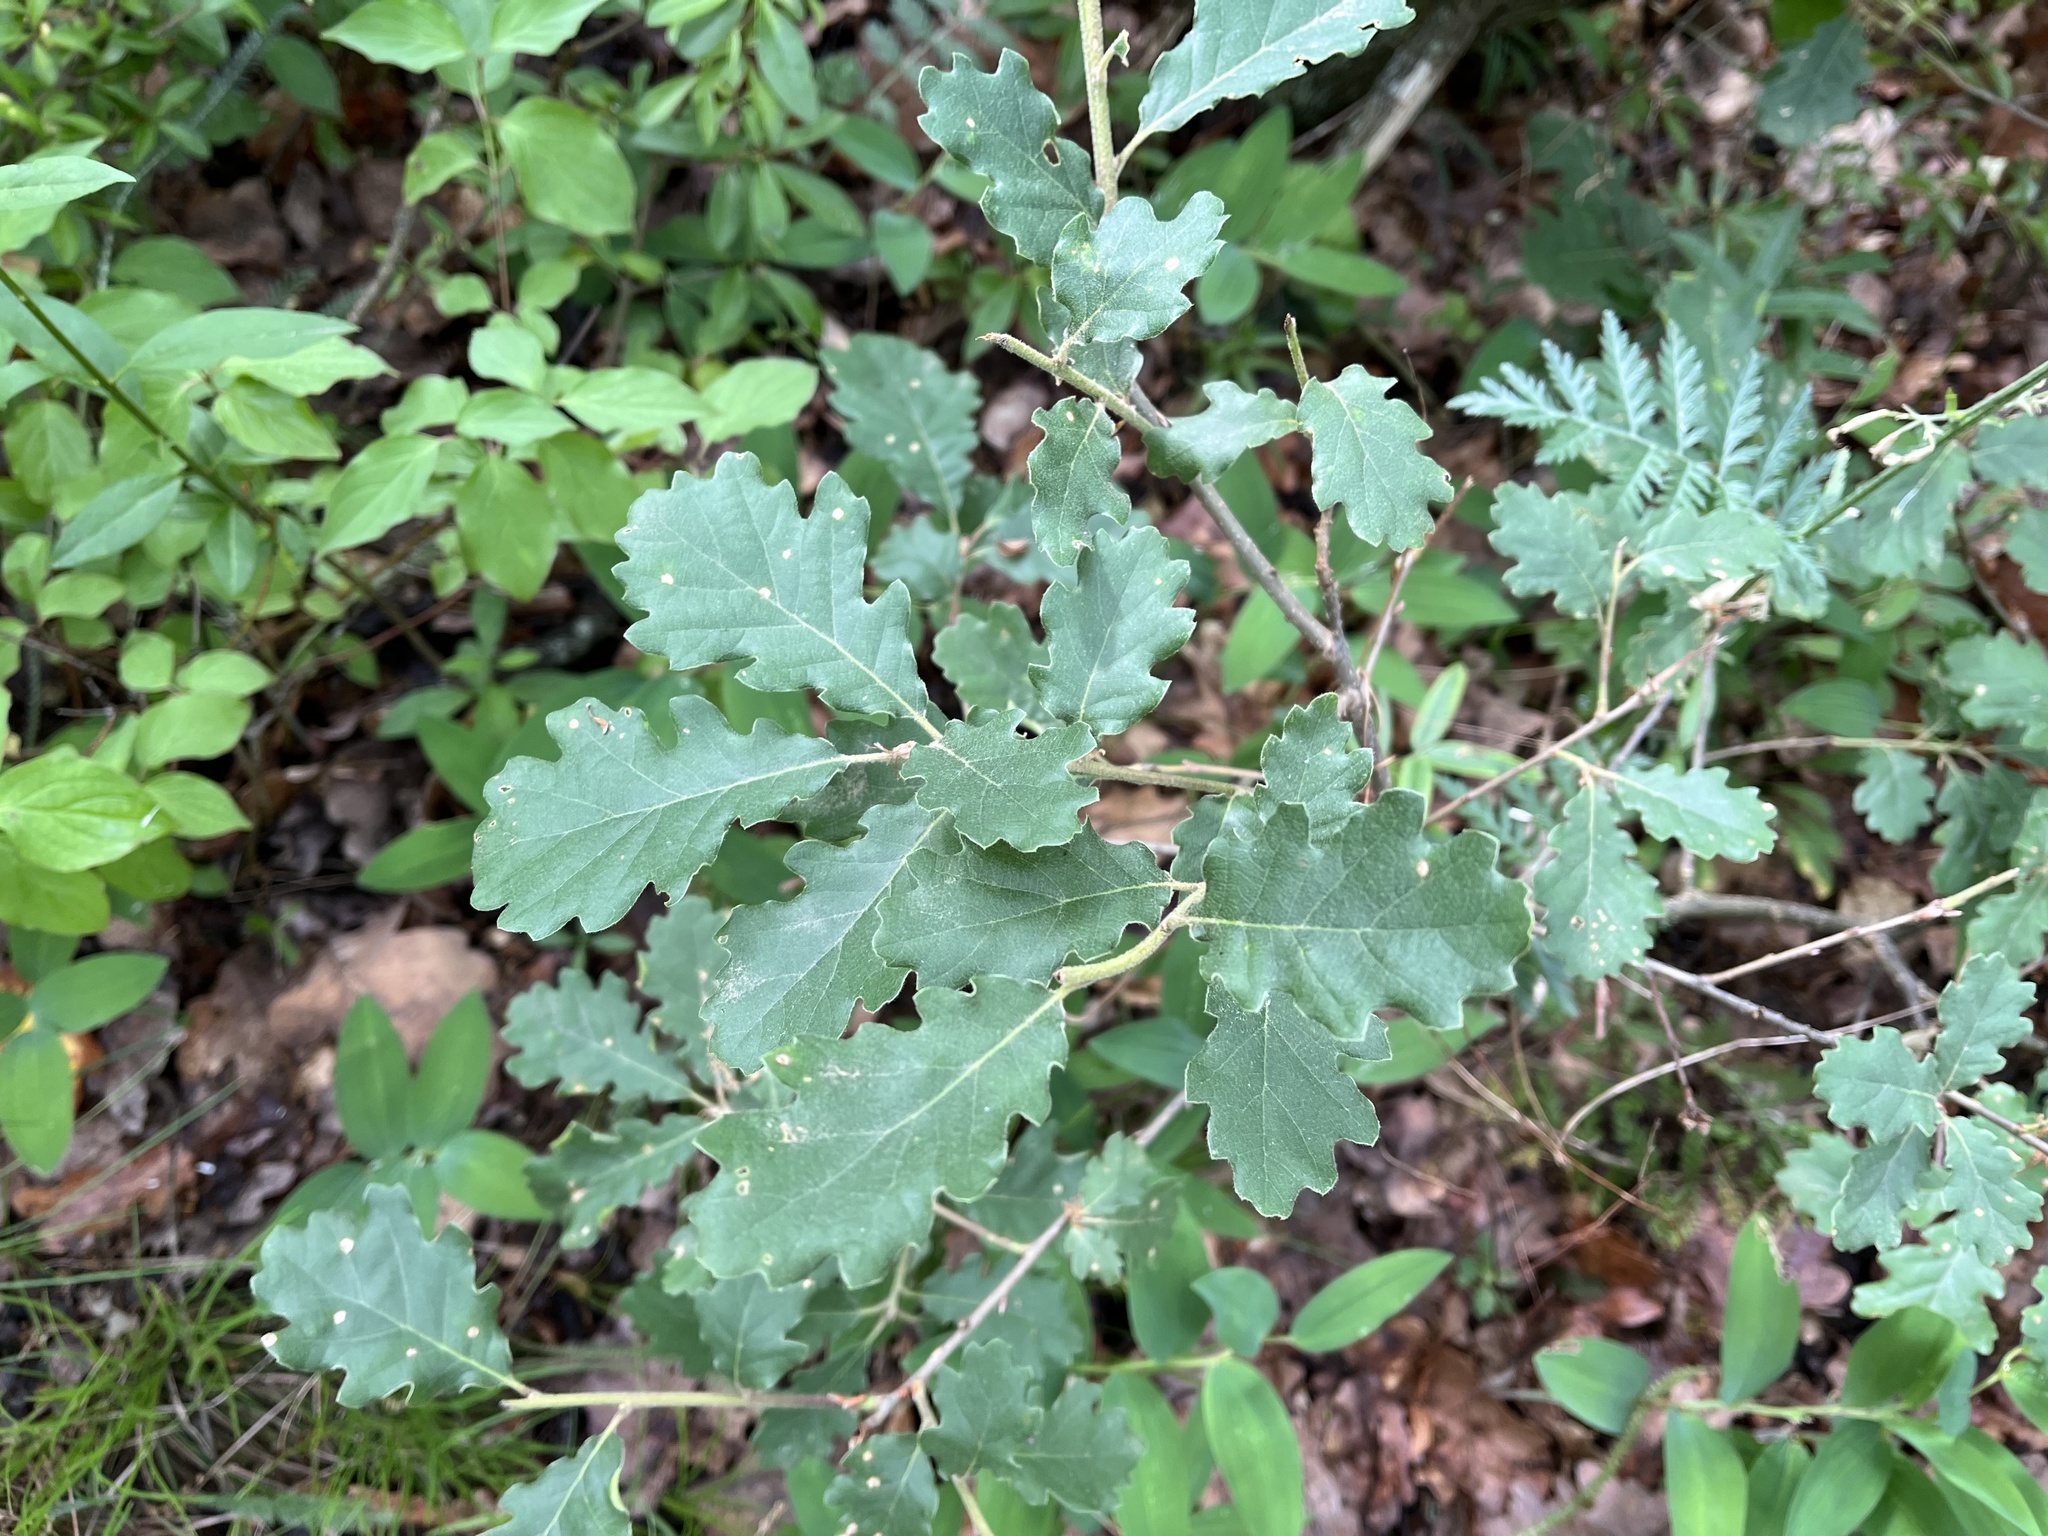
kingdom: Plantae
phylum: Tracheophyta
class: Magnoliopsida
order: Fagales
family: Fagaceae
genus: Quercus
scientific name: Quercus pubescens
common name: Downy oak
